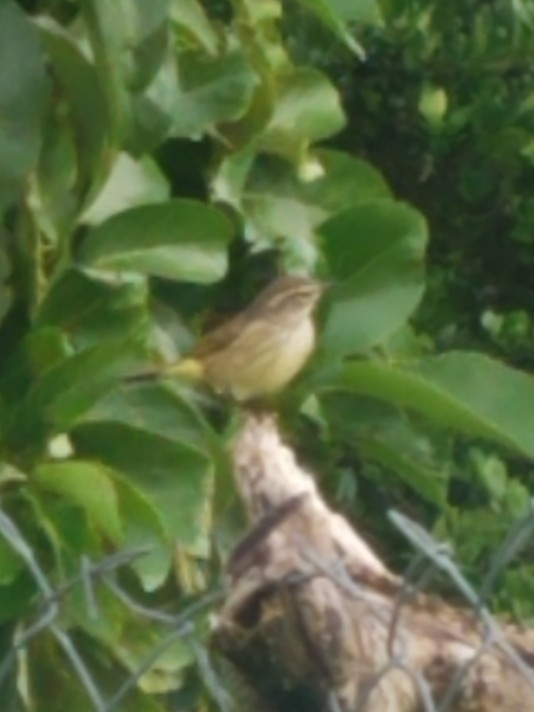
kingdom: Animalia
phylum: Chordata
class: Aves
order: Passeriformes
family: Parulidae
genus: Setophaga
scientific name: Setophaga palmarum
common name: Palm warbler
